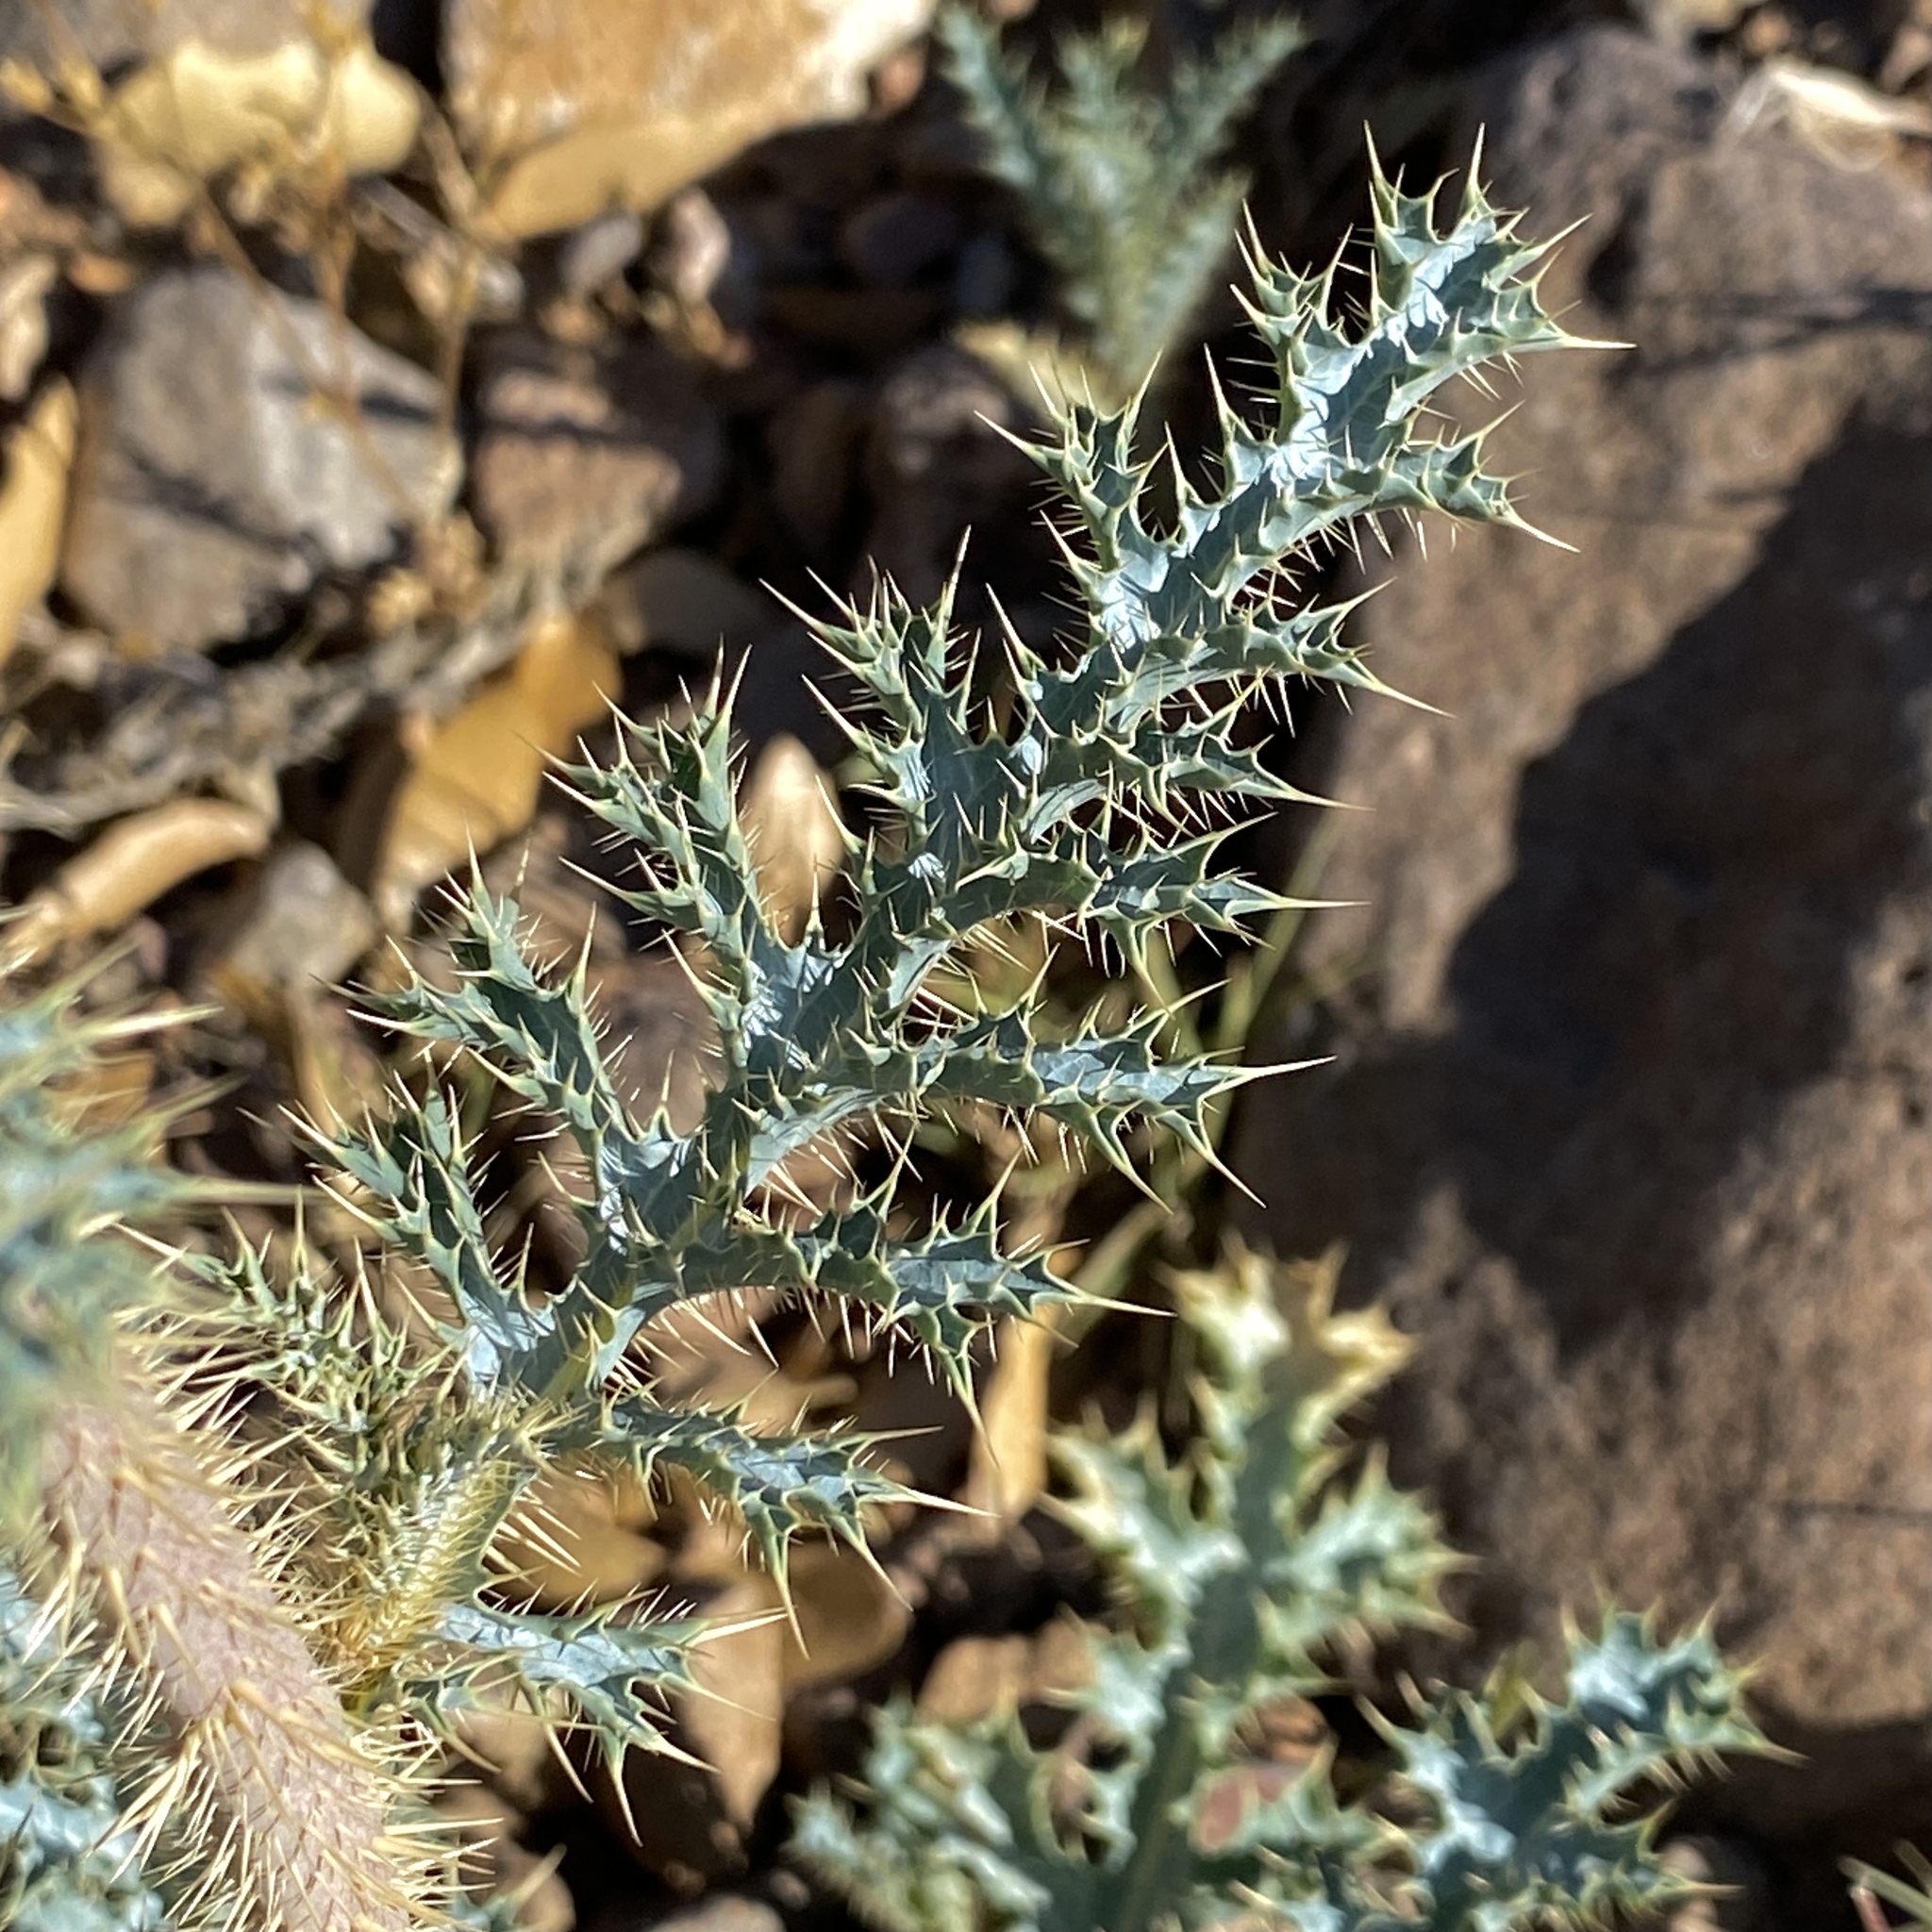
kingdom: Plantae
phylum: Tracheophyta
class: Magnoliopsida
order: Ranunculales
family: Papaveraceae
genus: Argemone
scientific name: Argemone pleiacantha
